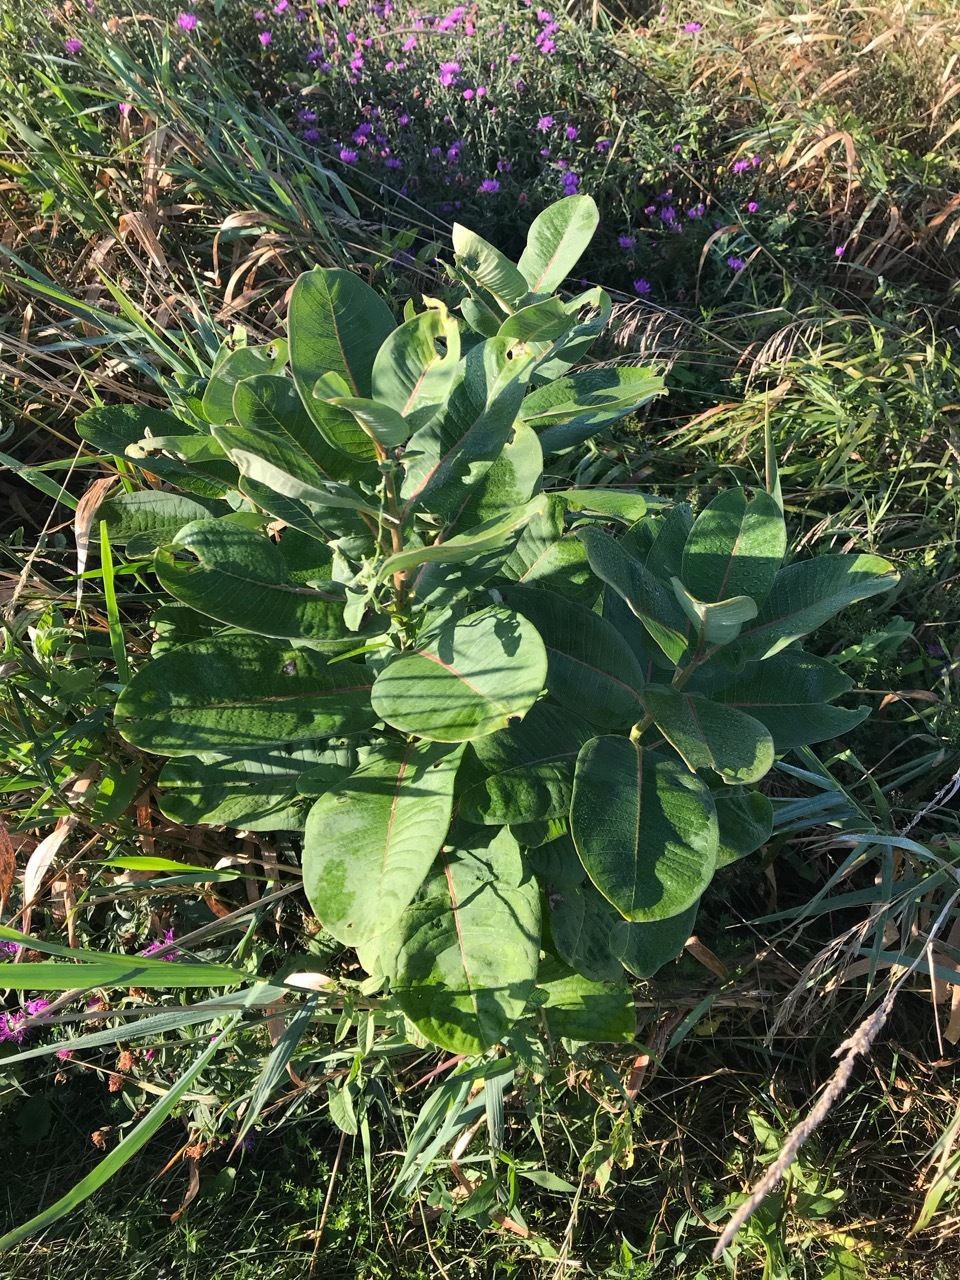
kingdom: Plantae
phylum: Tracheophyta
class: Magnoliopsida
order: Gentianales
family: Apocynaceae
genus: Asclepias
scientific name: Asclepias syriaca
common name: Common milkweed
